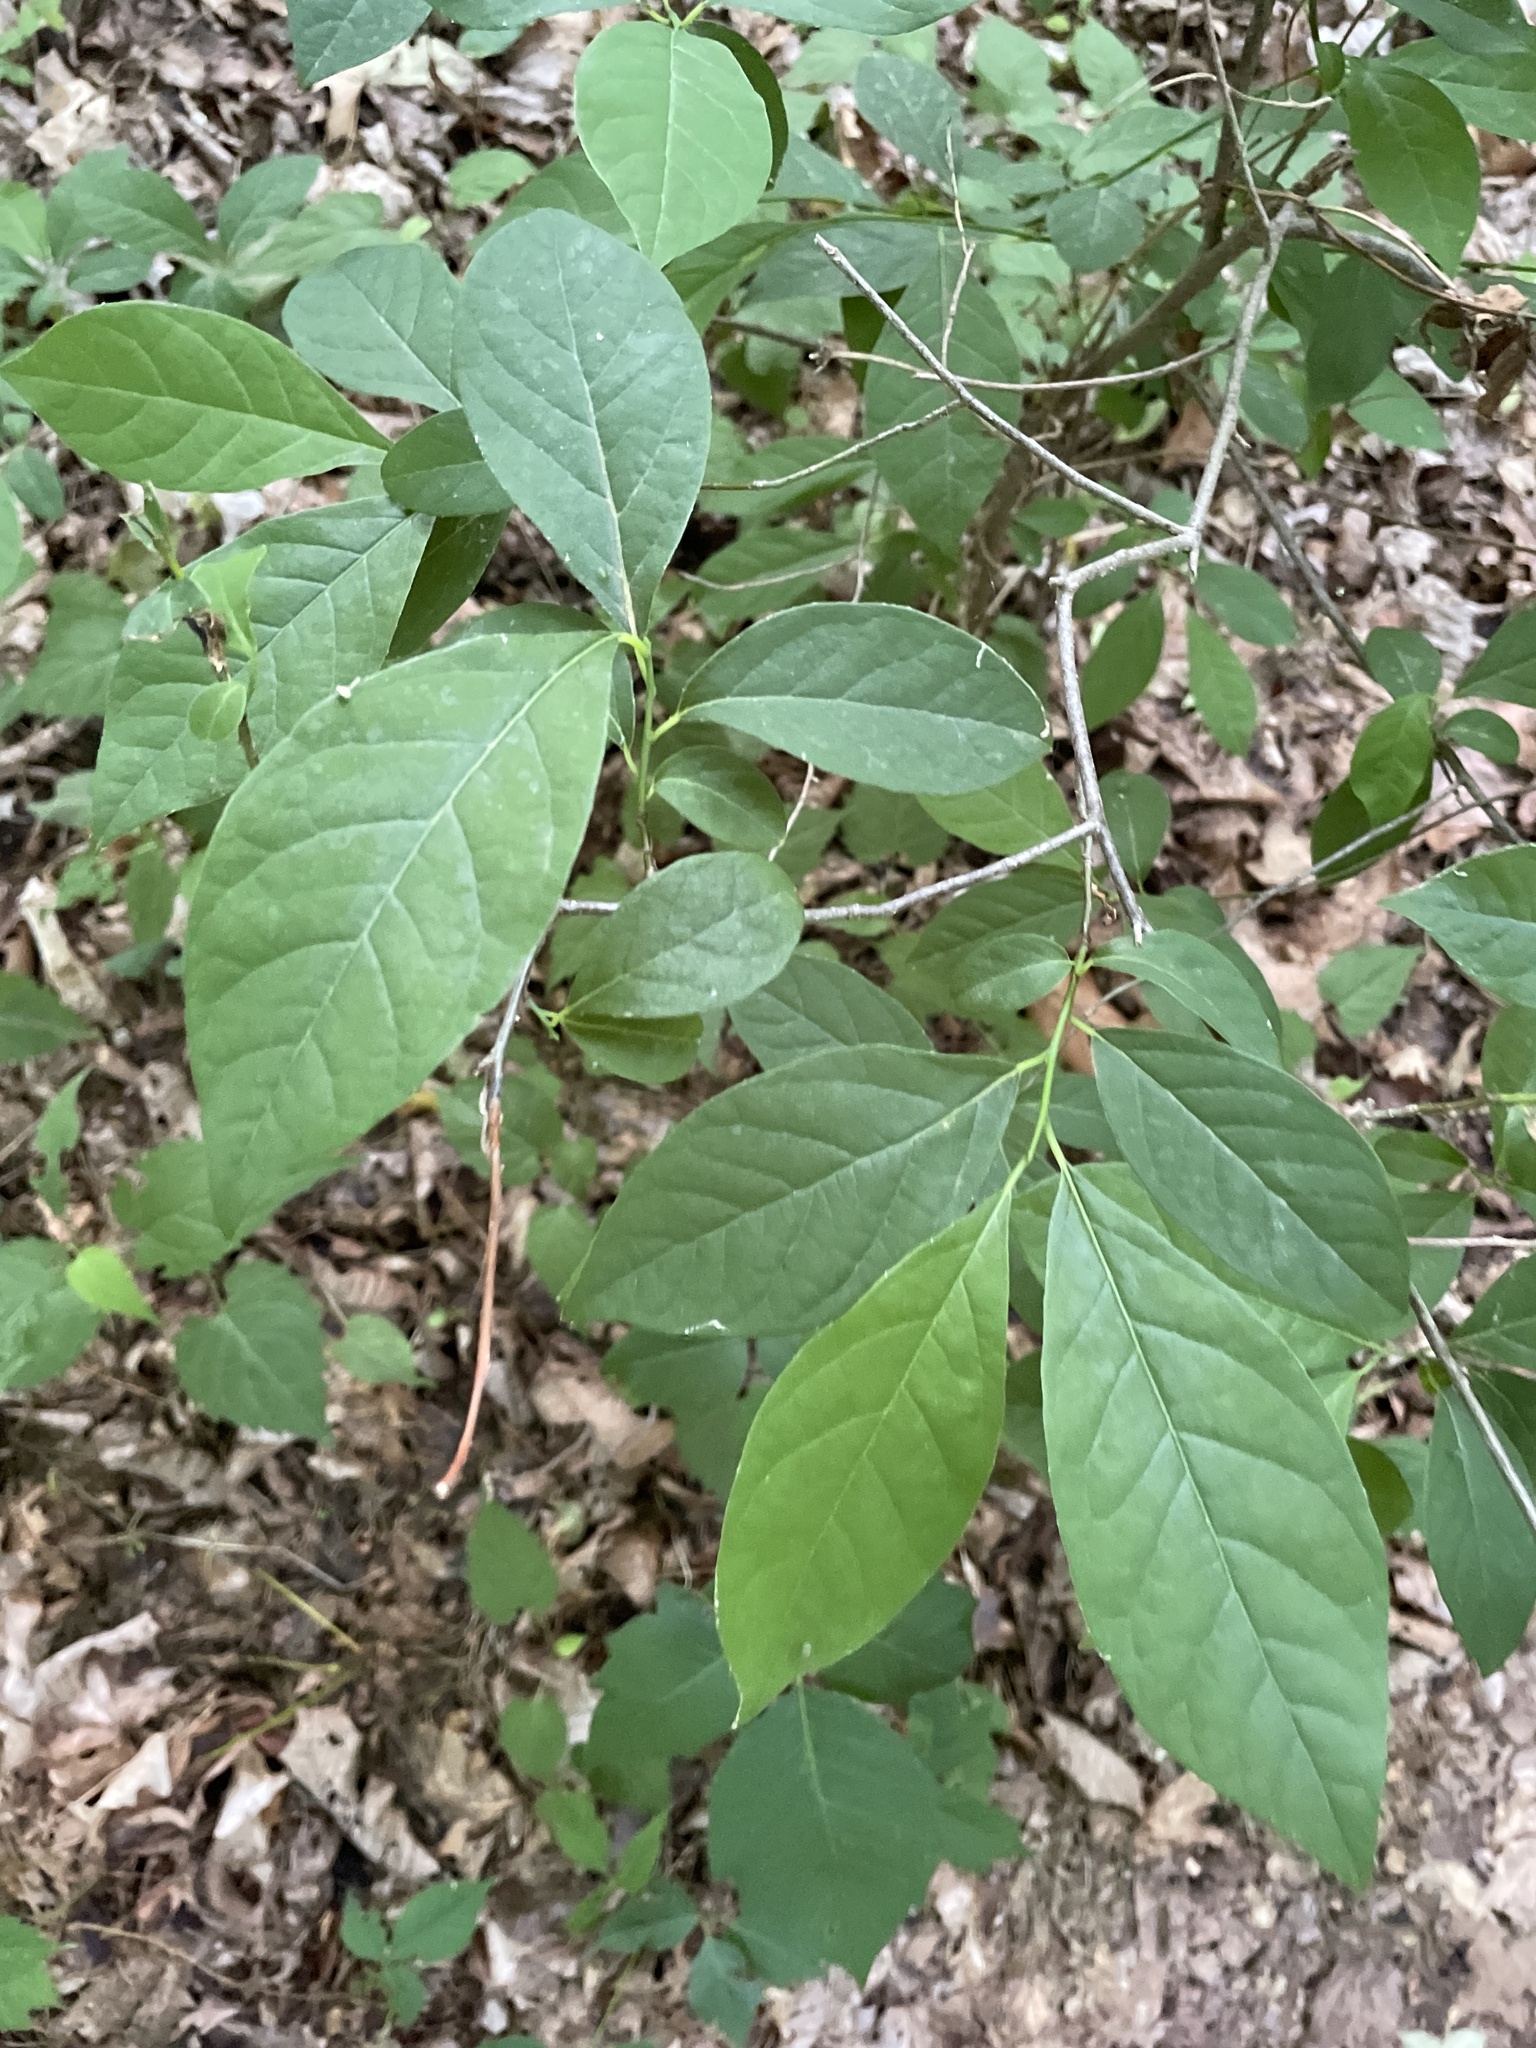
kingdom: Plantae
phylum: Tracheophyta
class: Magnoliopsida
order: Laurales
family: Lauraceae
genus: Lindera
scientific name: Lindera benzoin
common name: Spicebush
